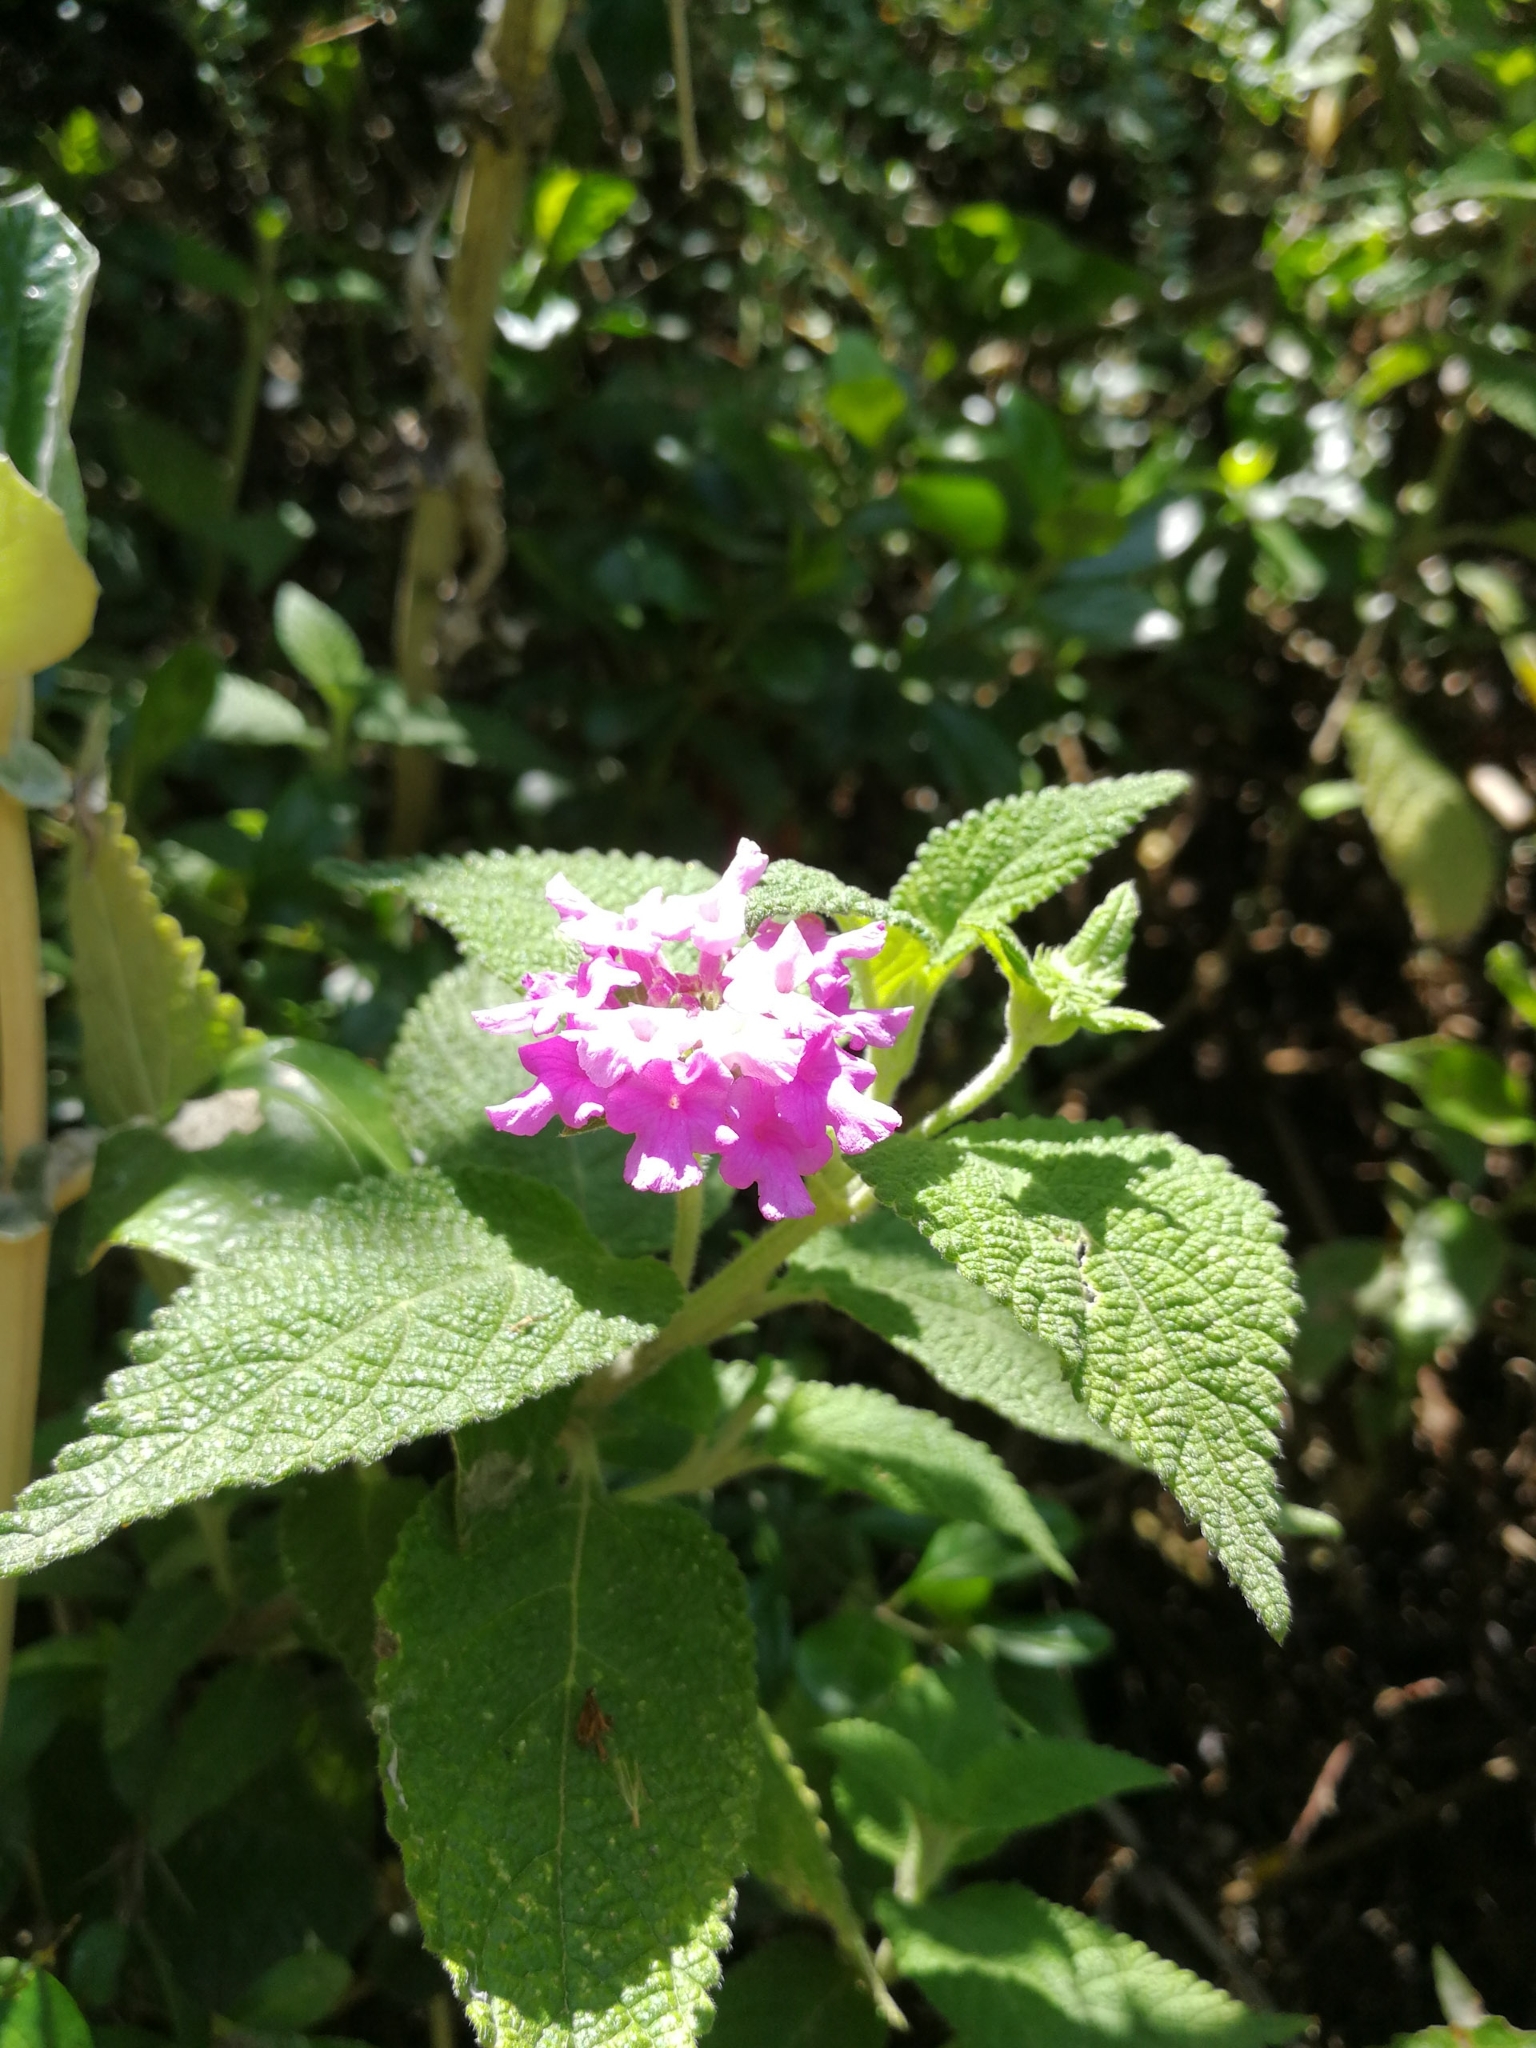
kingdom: Plantae
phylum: Tracheophyta
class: Magnoliopsida
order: Lamiales
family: Verbenaceae
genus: Lantana
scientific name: Lantana rugulosa
